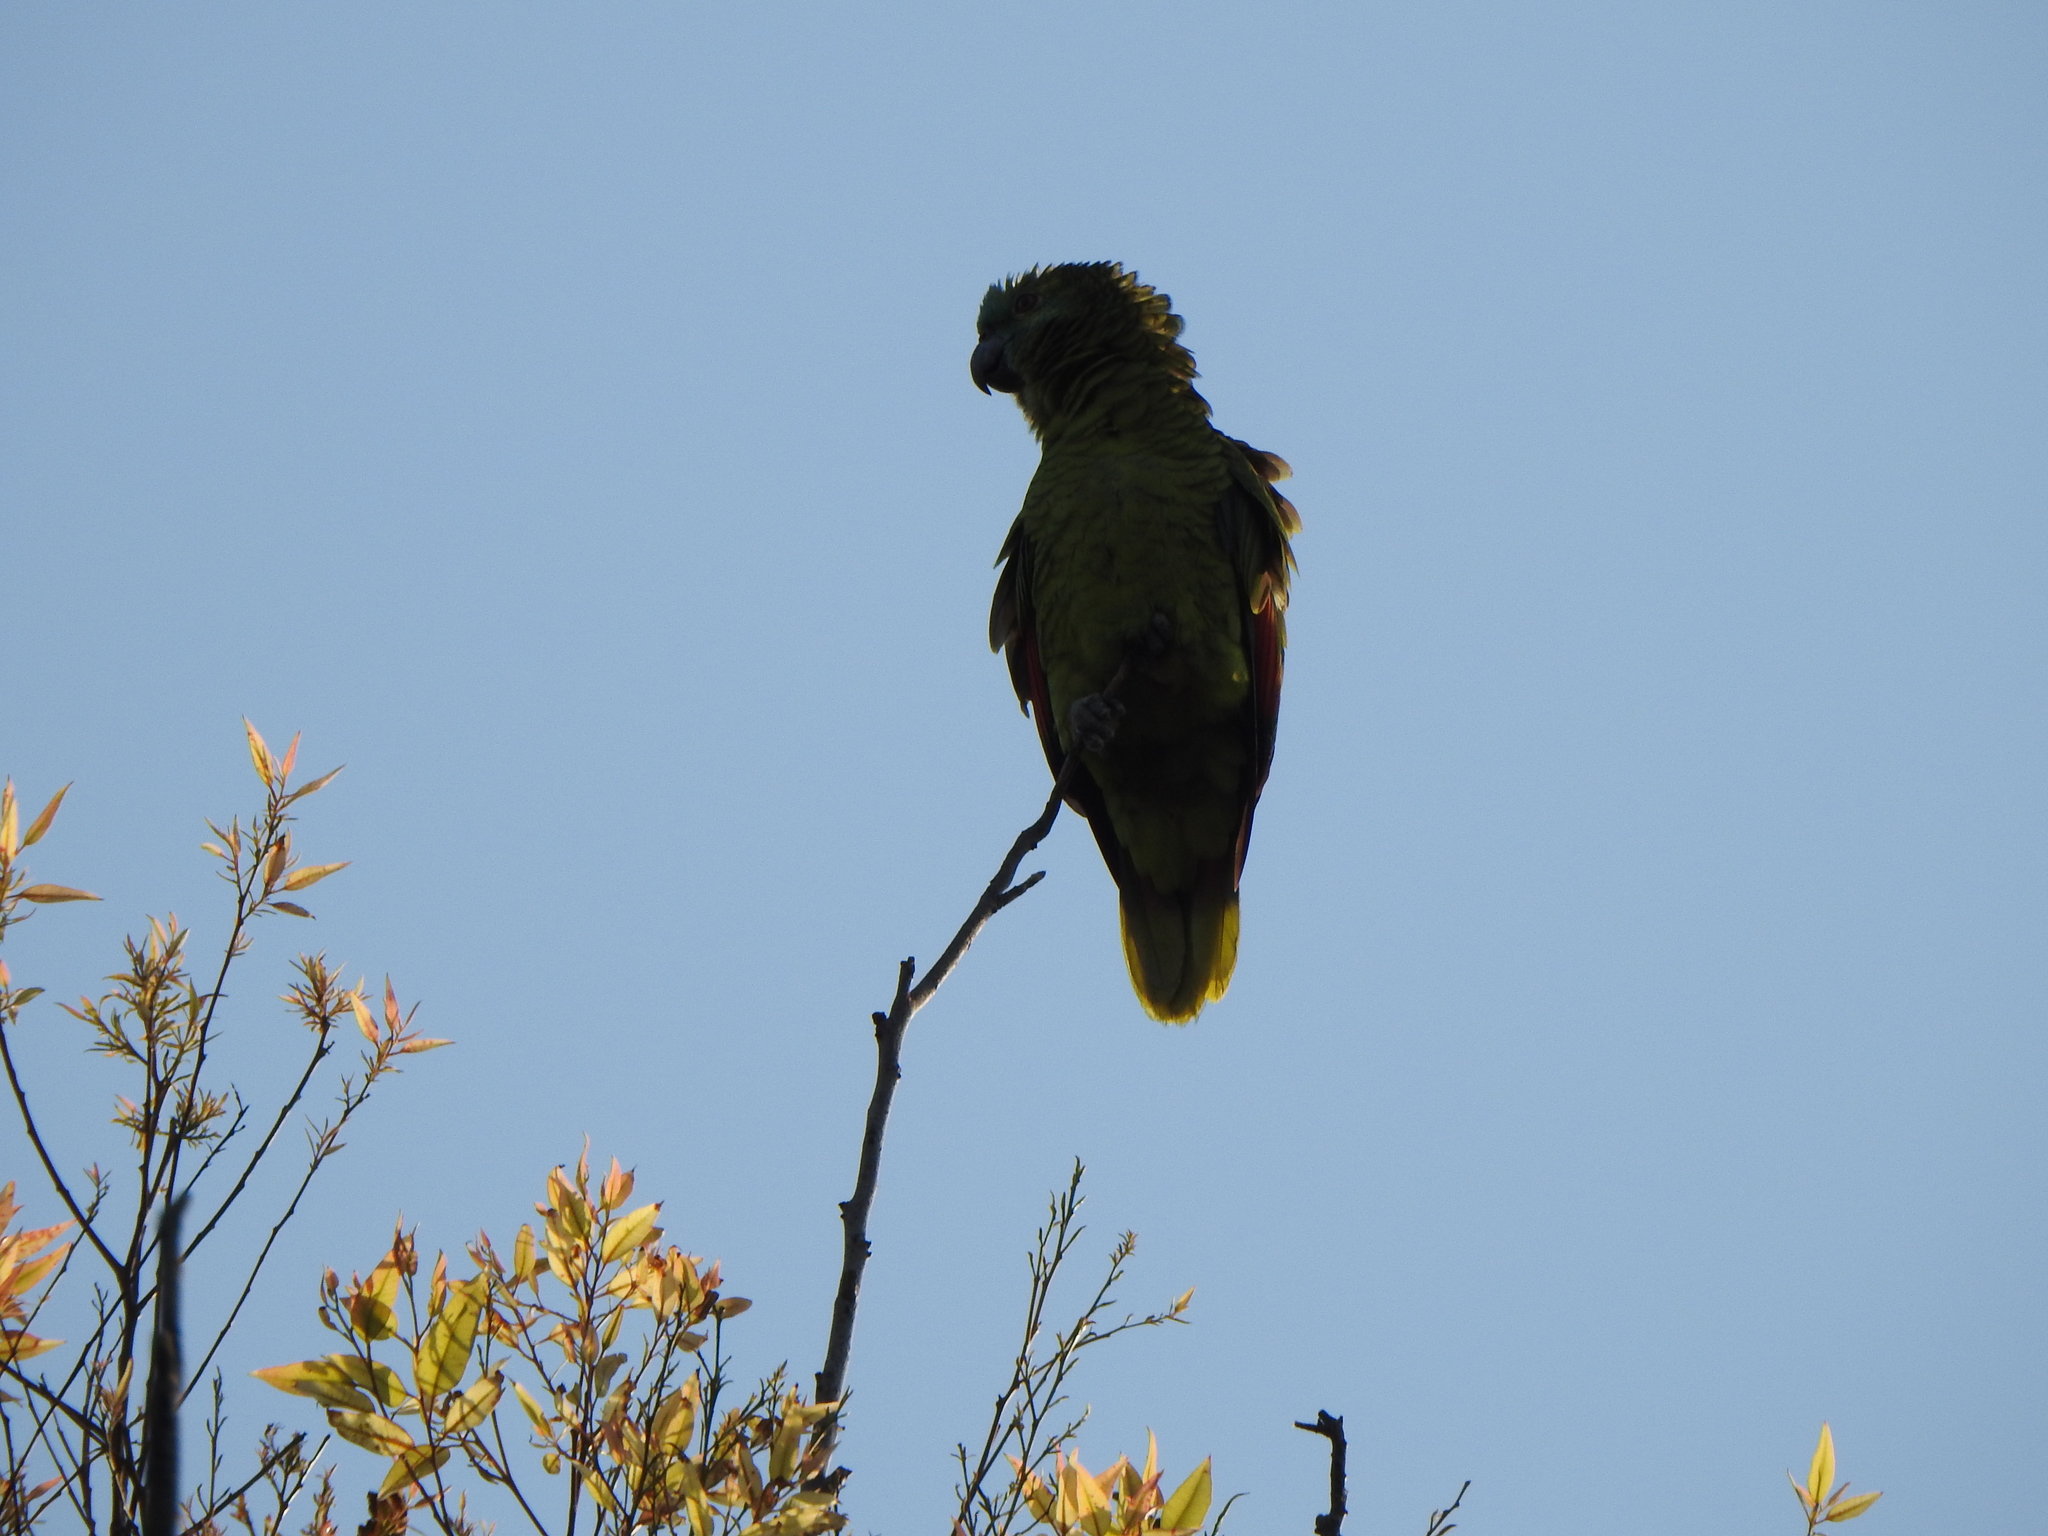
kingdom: Animalia
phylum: Chordata
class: Aves
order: Psittaciformes
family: Psittacidae
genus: Amazona
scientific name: Amazona aestiva
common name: Turquoise-fronted amazon
